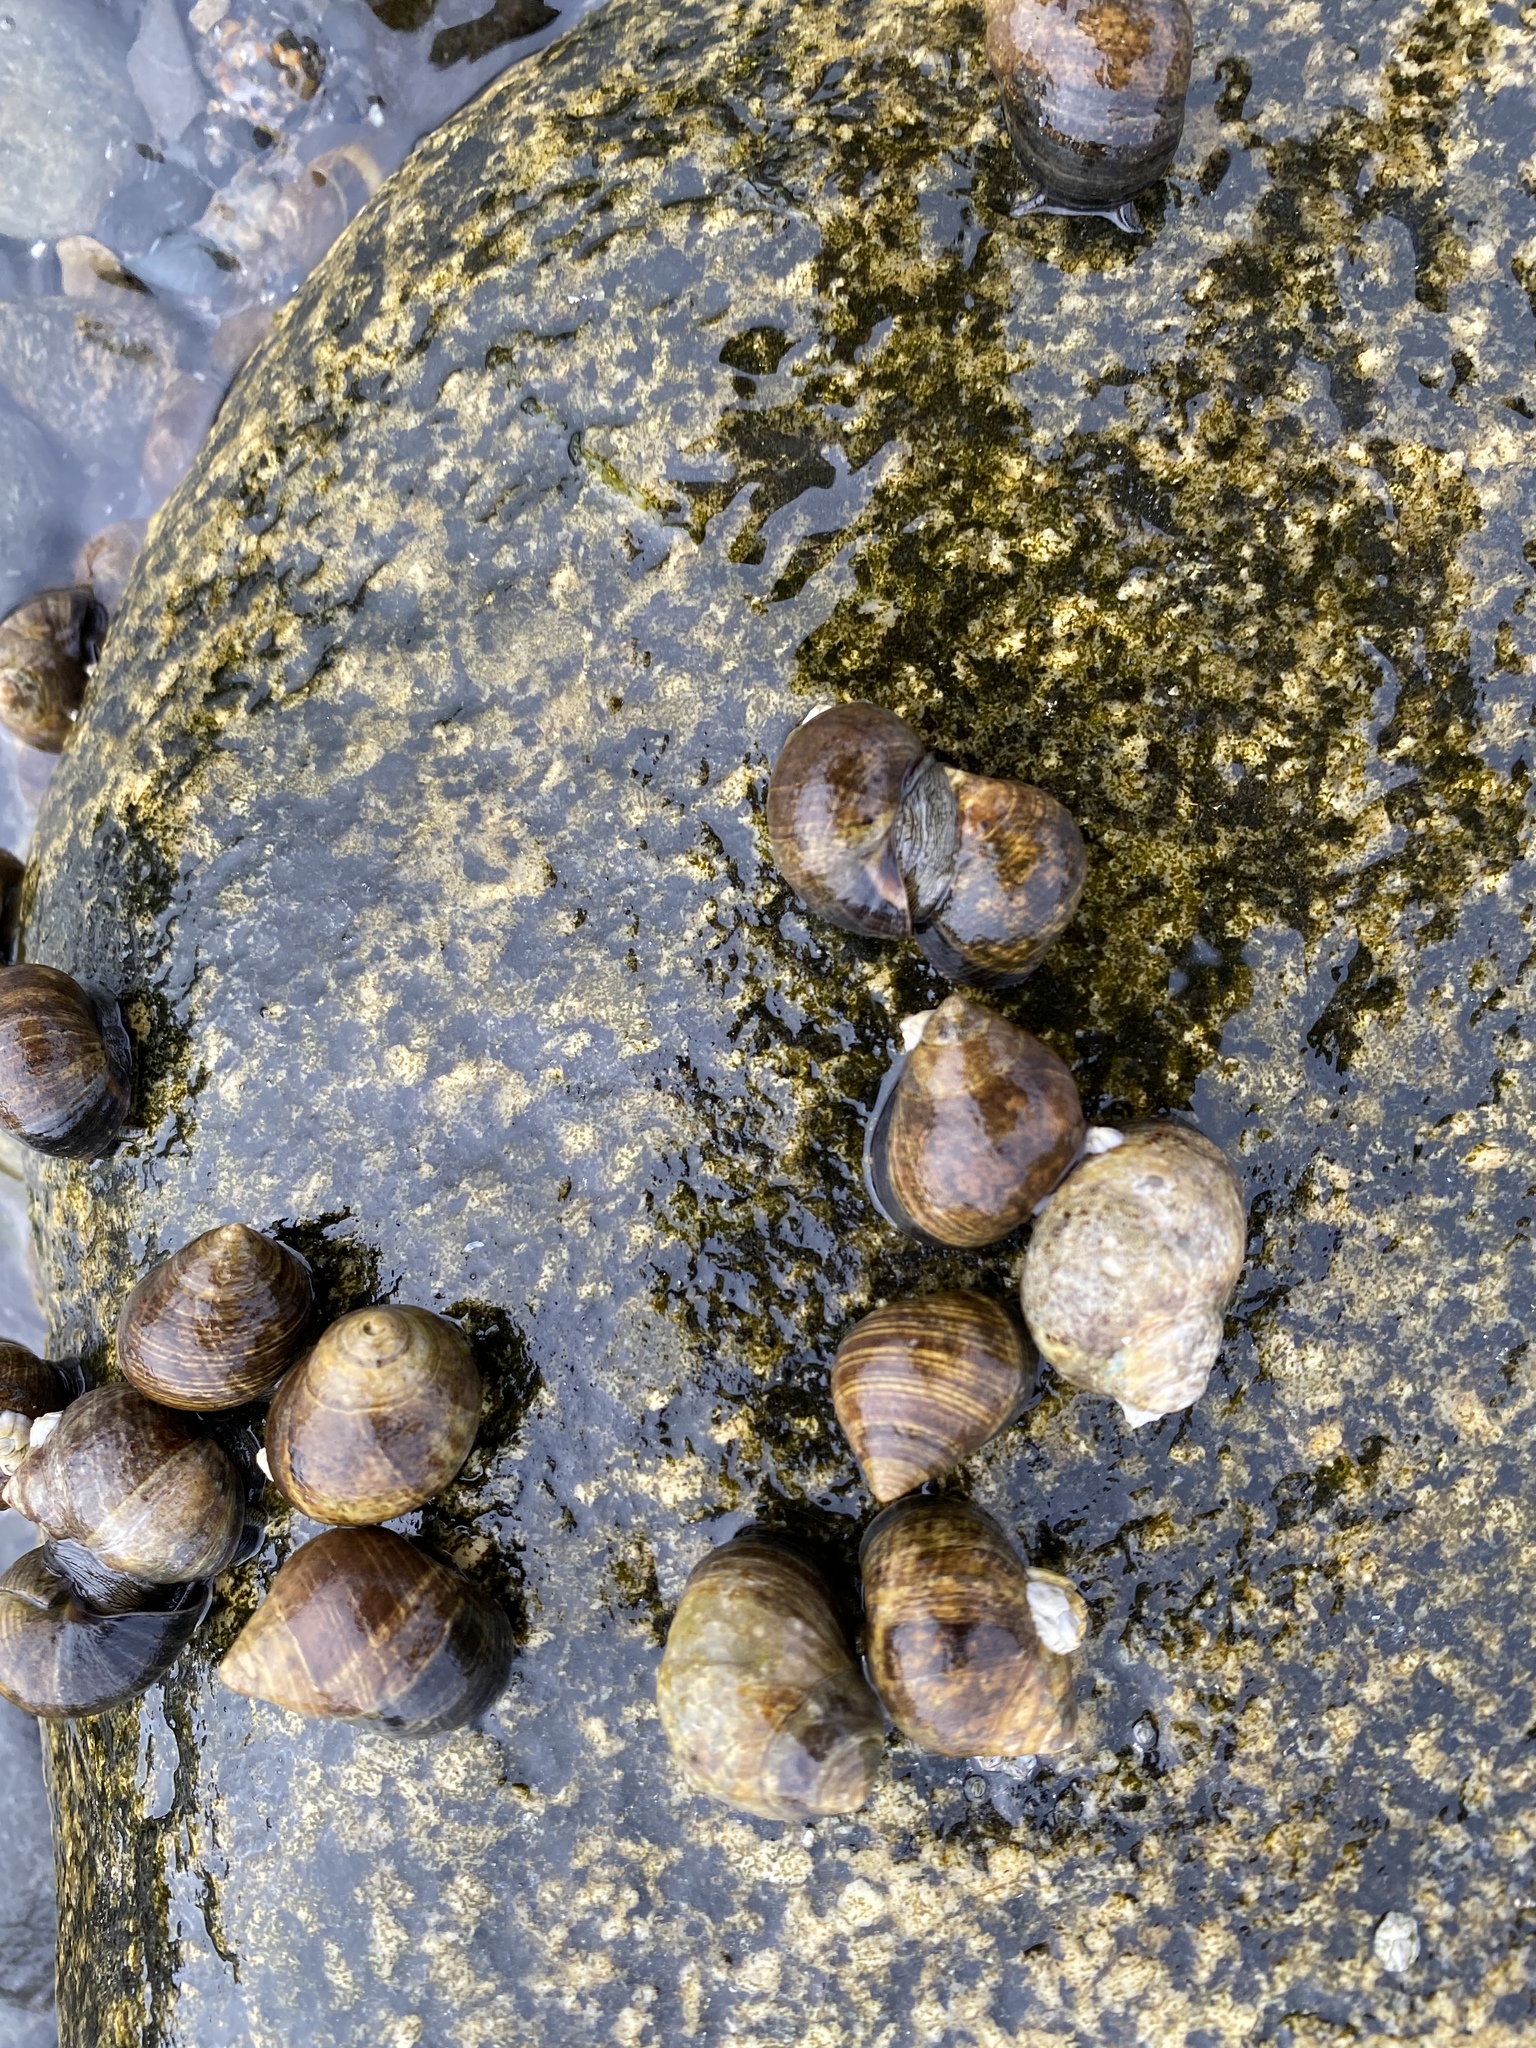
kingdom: Animalia
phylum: Mollusca
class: Gastropoda
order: Littorinimorpha
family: Littorinidae
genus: Littorina
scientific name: Littorina littorea
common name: Common periwinkle
